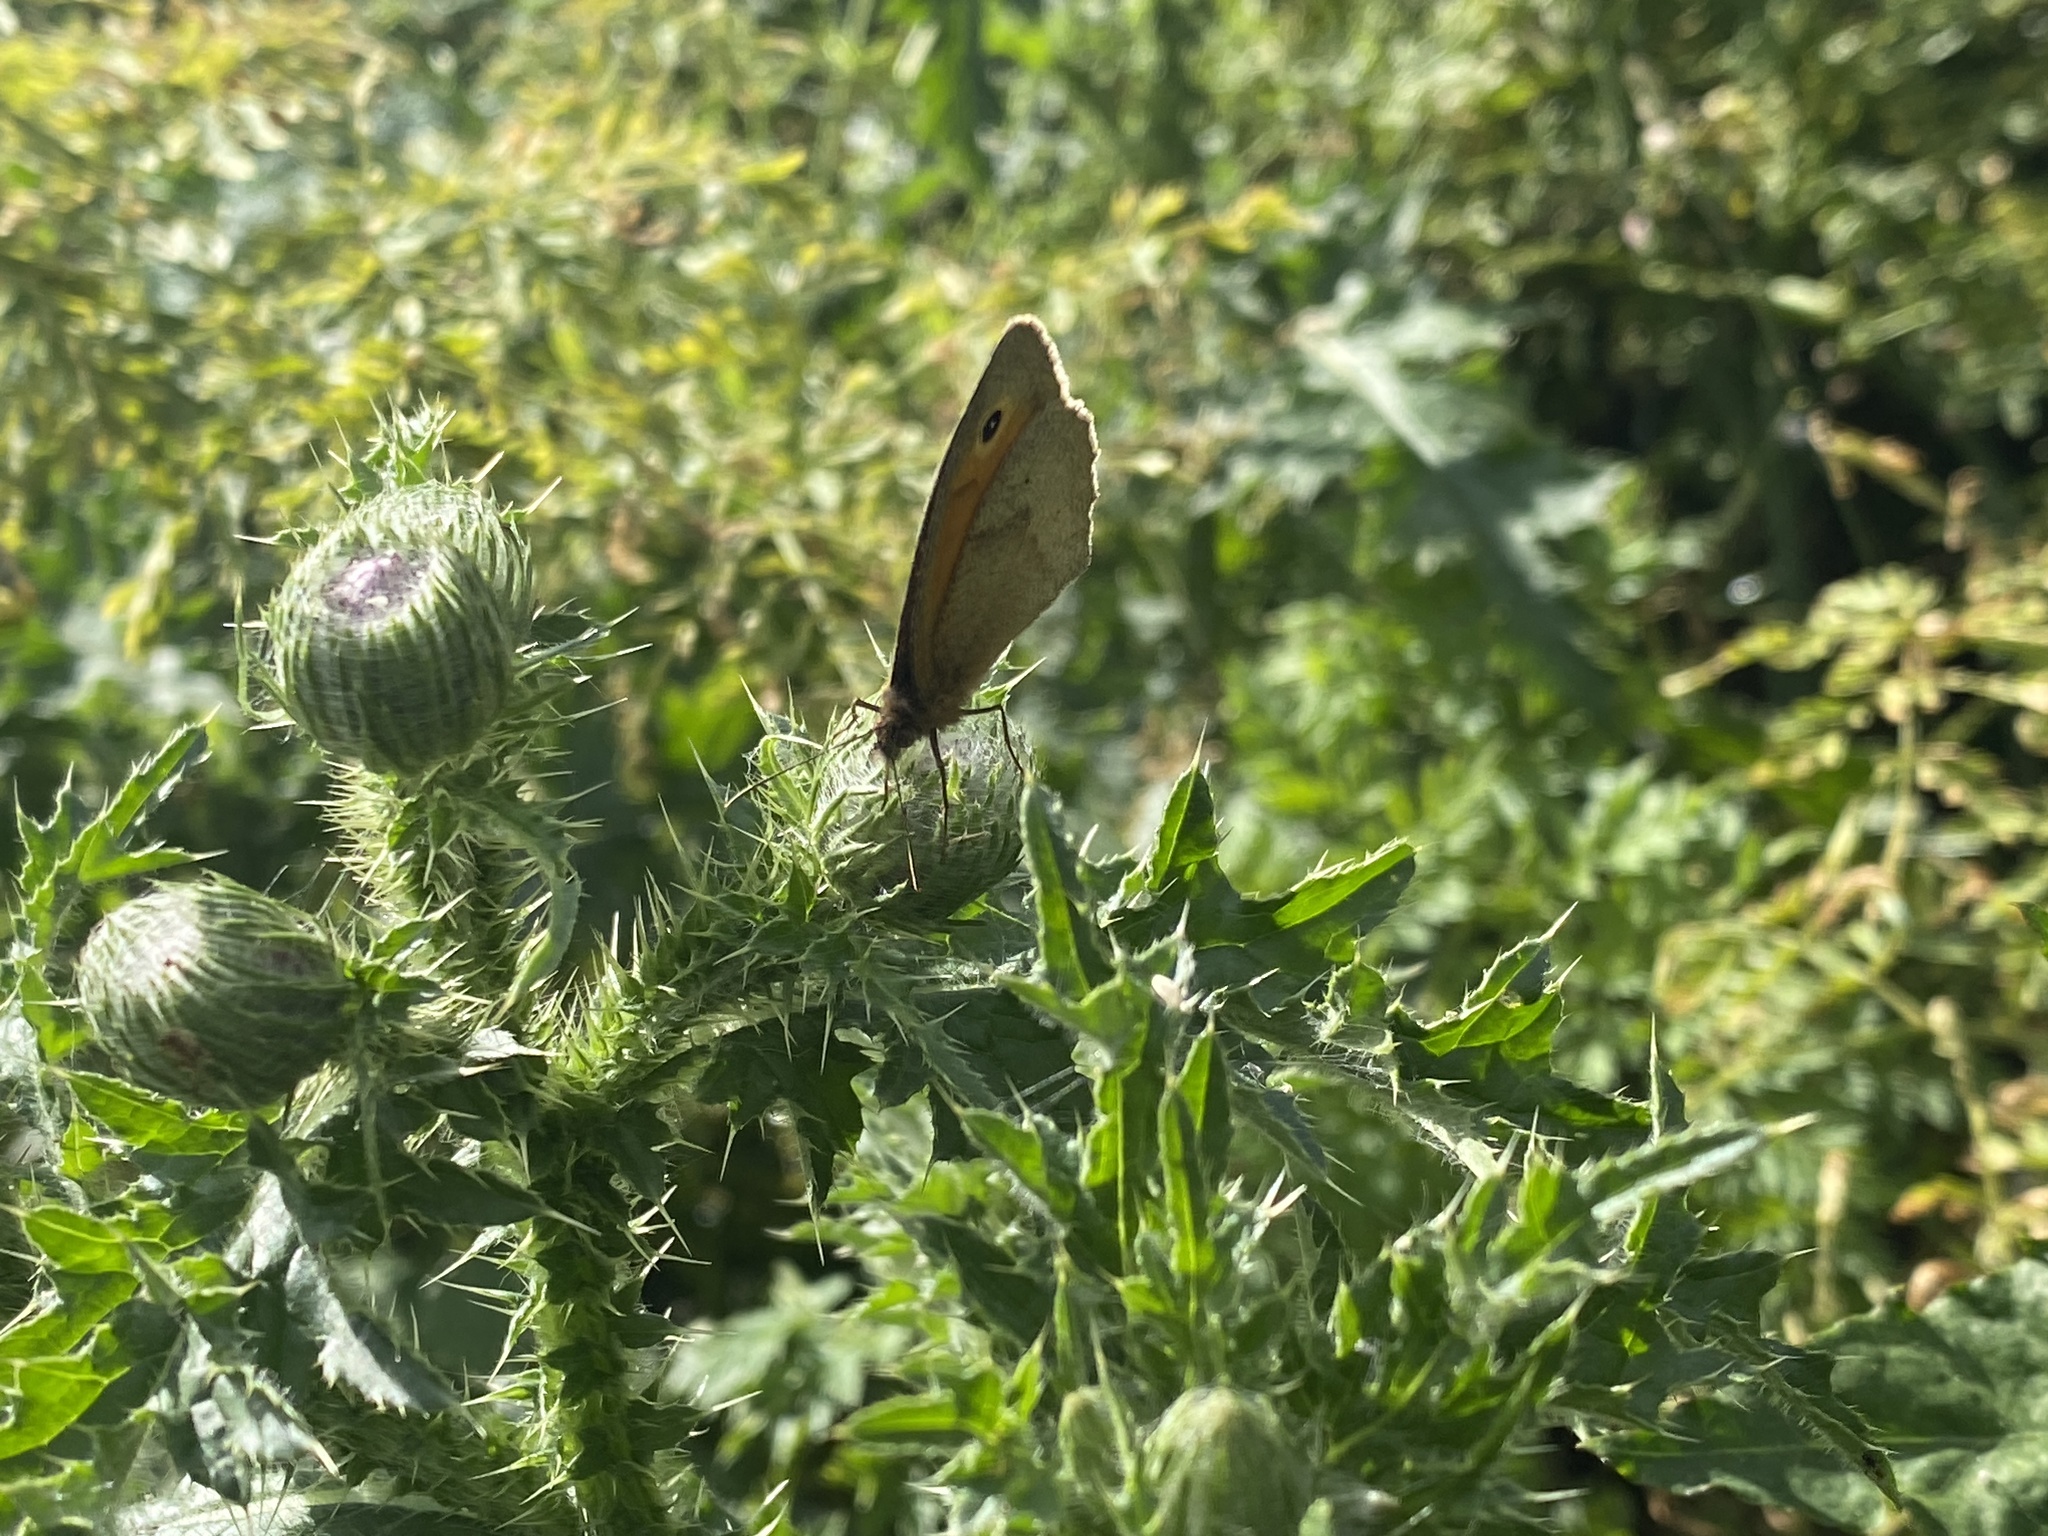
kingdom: Plantae
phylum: Tracheophyta
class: Magnoliopsida
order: Asterales
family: Asteraceae
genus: Carduus
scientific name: Carduus crispus
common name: Welted thistle
